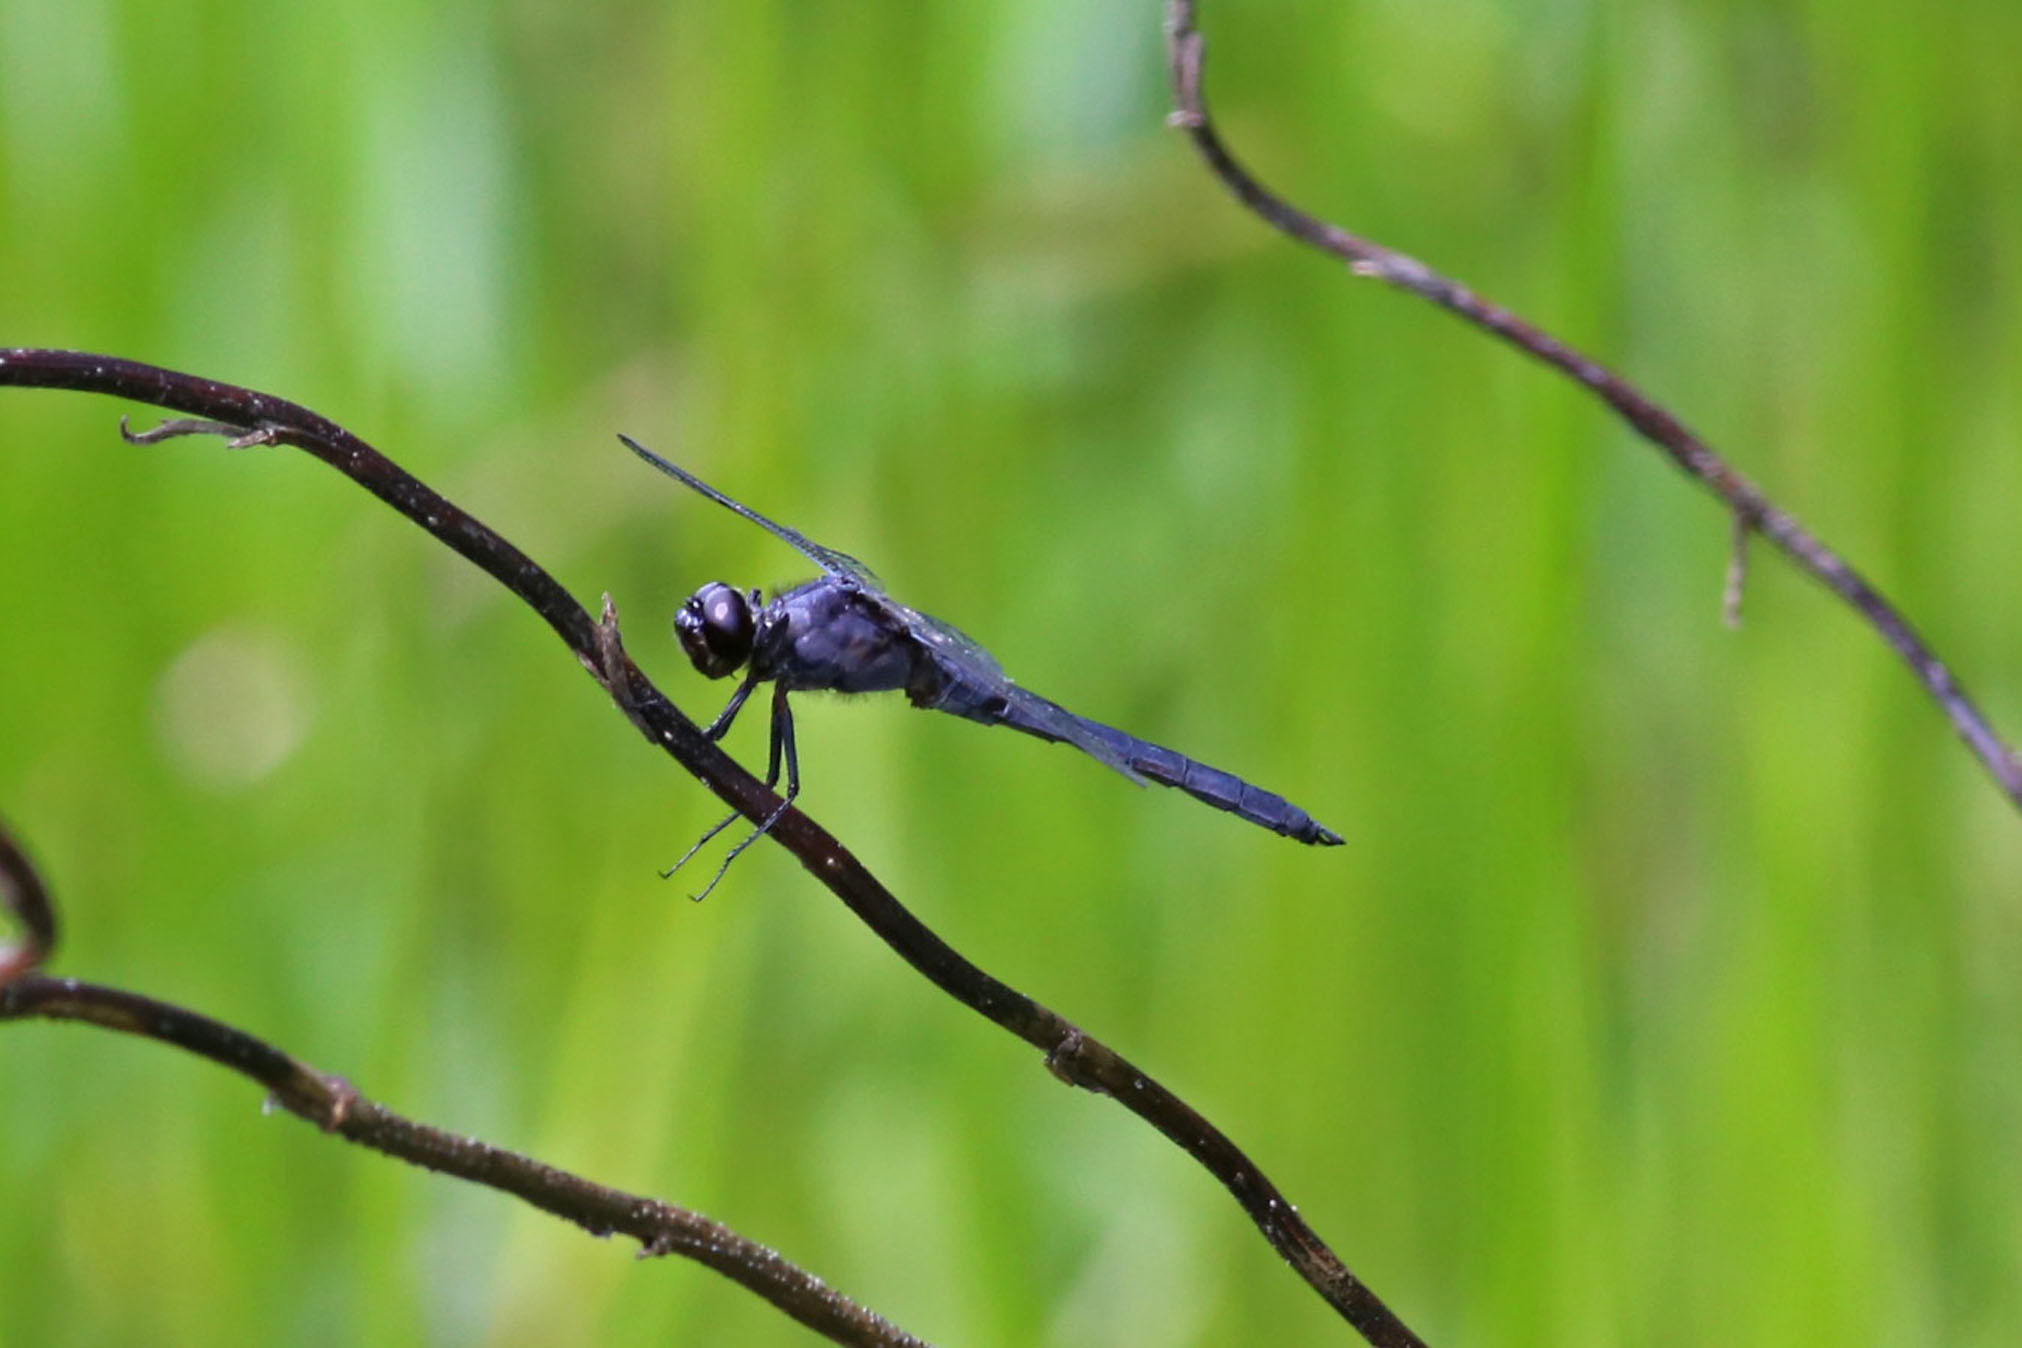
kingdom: Animalia
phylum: Arthropoda
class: Insecta
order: Odonata
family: Libellulidae
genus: Libellula
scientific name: Libellula incesta
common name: Slaty skimmer
